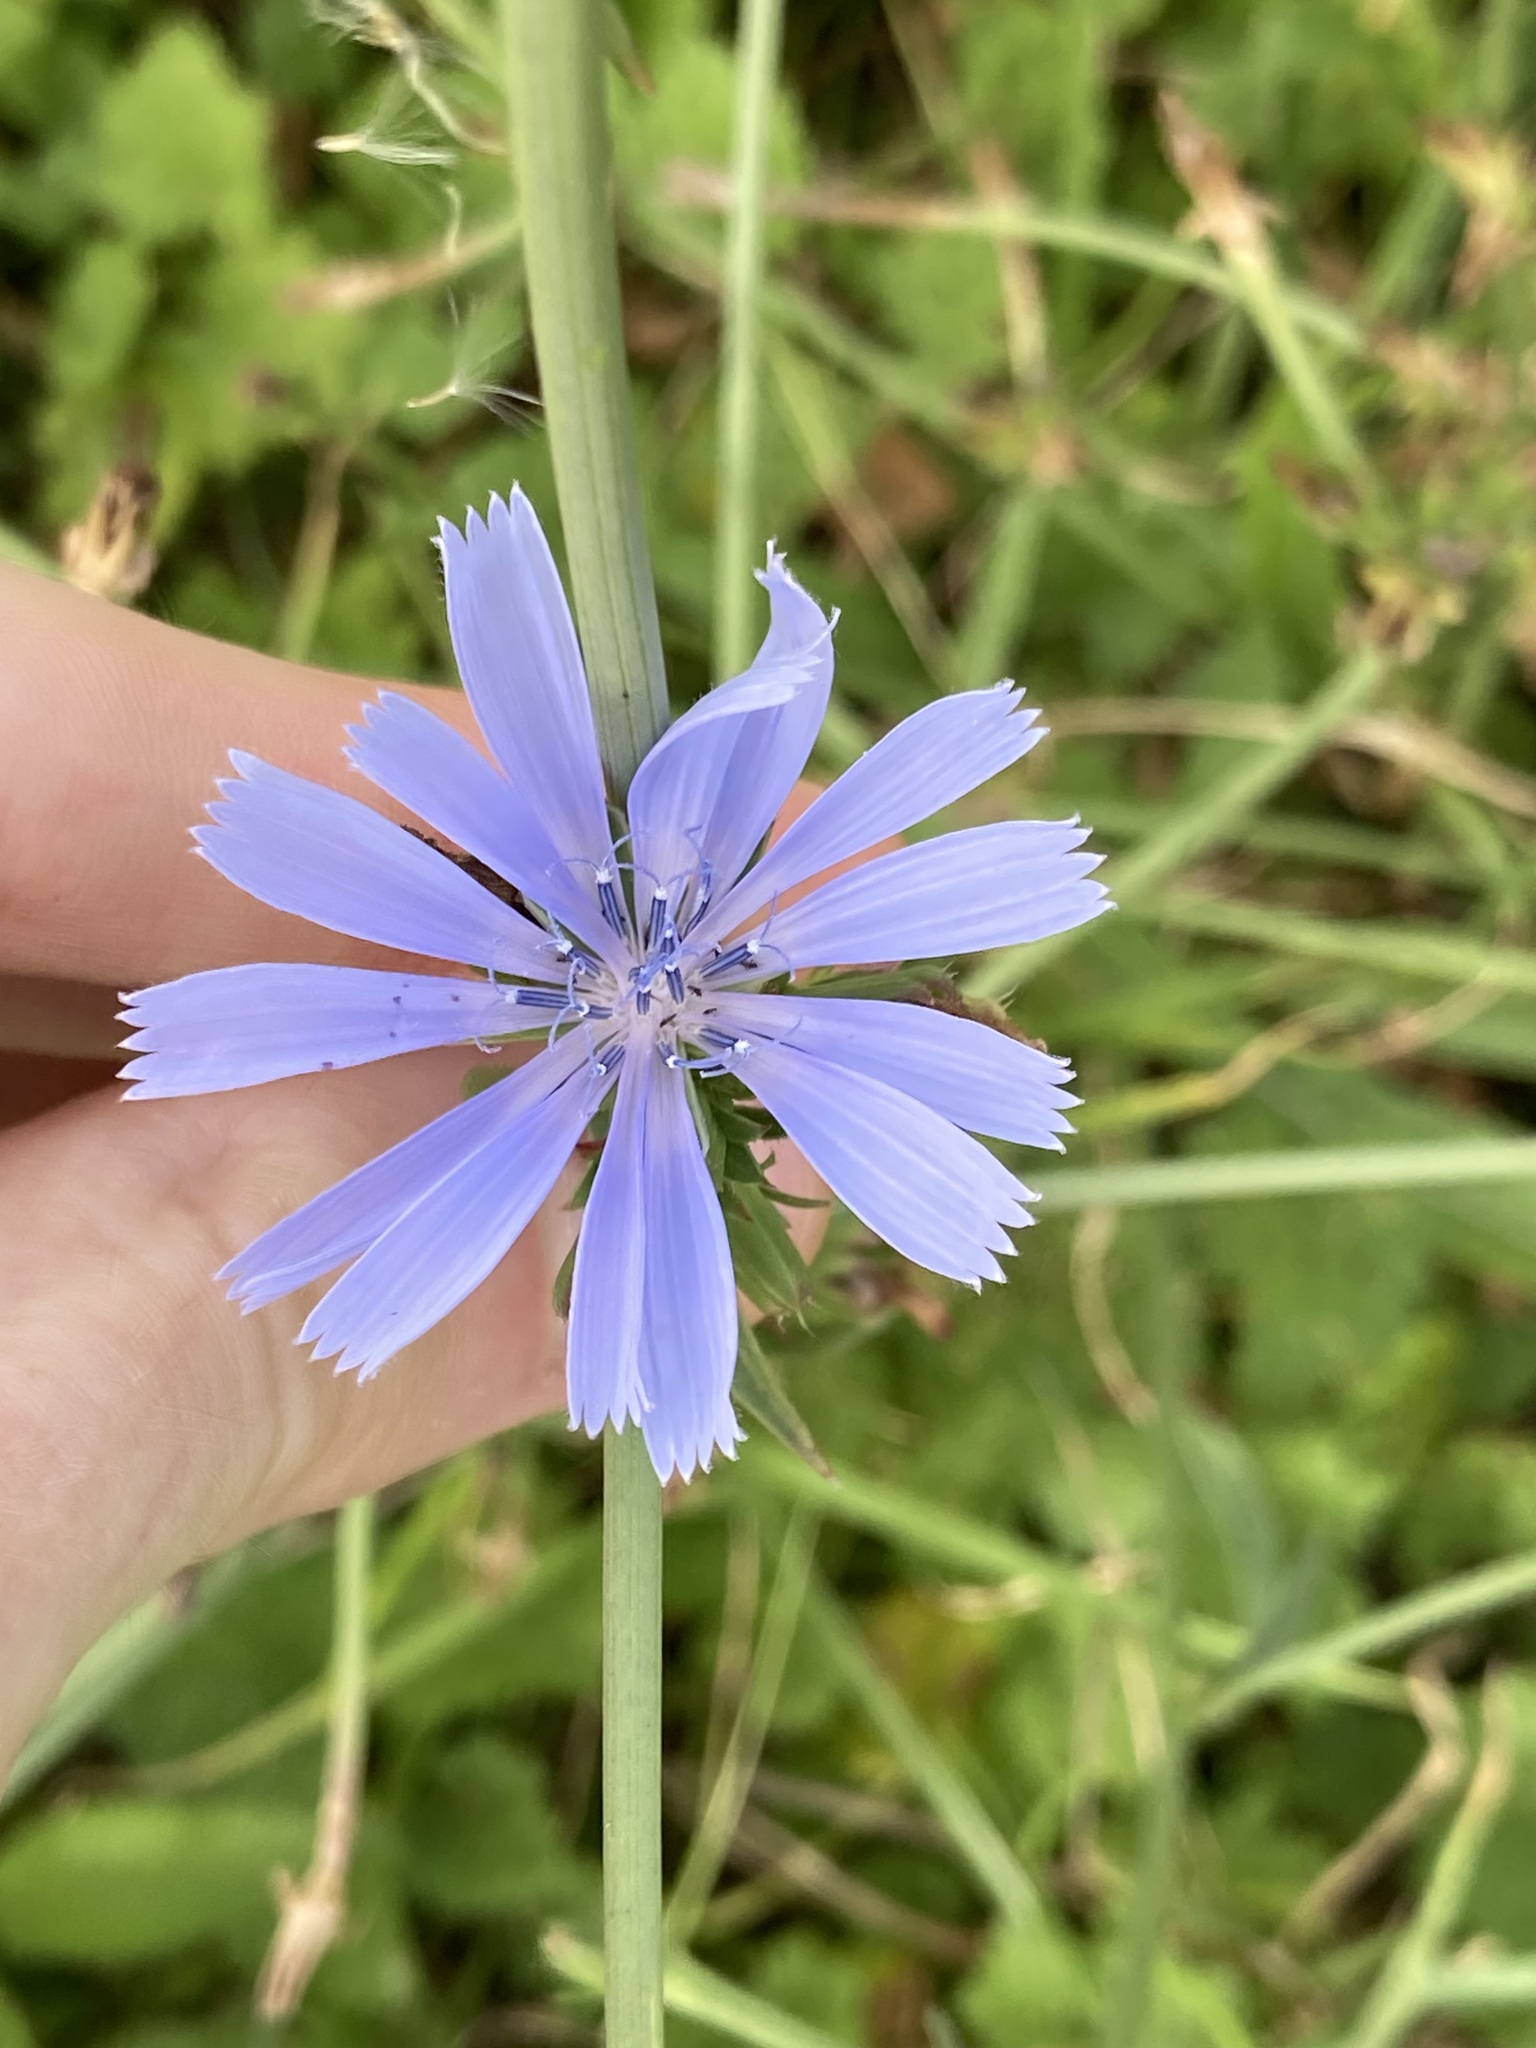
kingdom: Plantae
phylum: Tracheophyta
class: Magnoliopsida
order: Asterales
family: Asteraceae
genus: Cichorium
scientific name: Cichorium intybus
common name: Chicory
